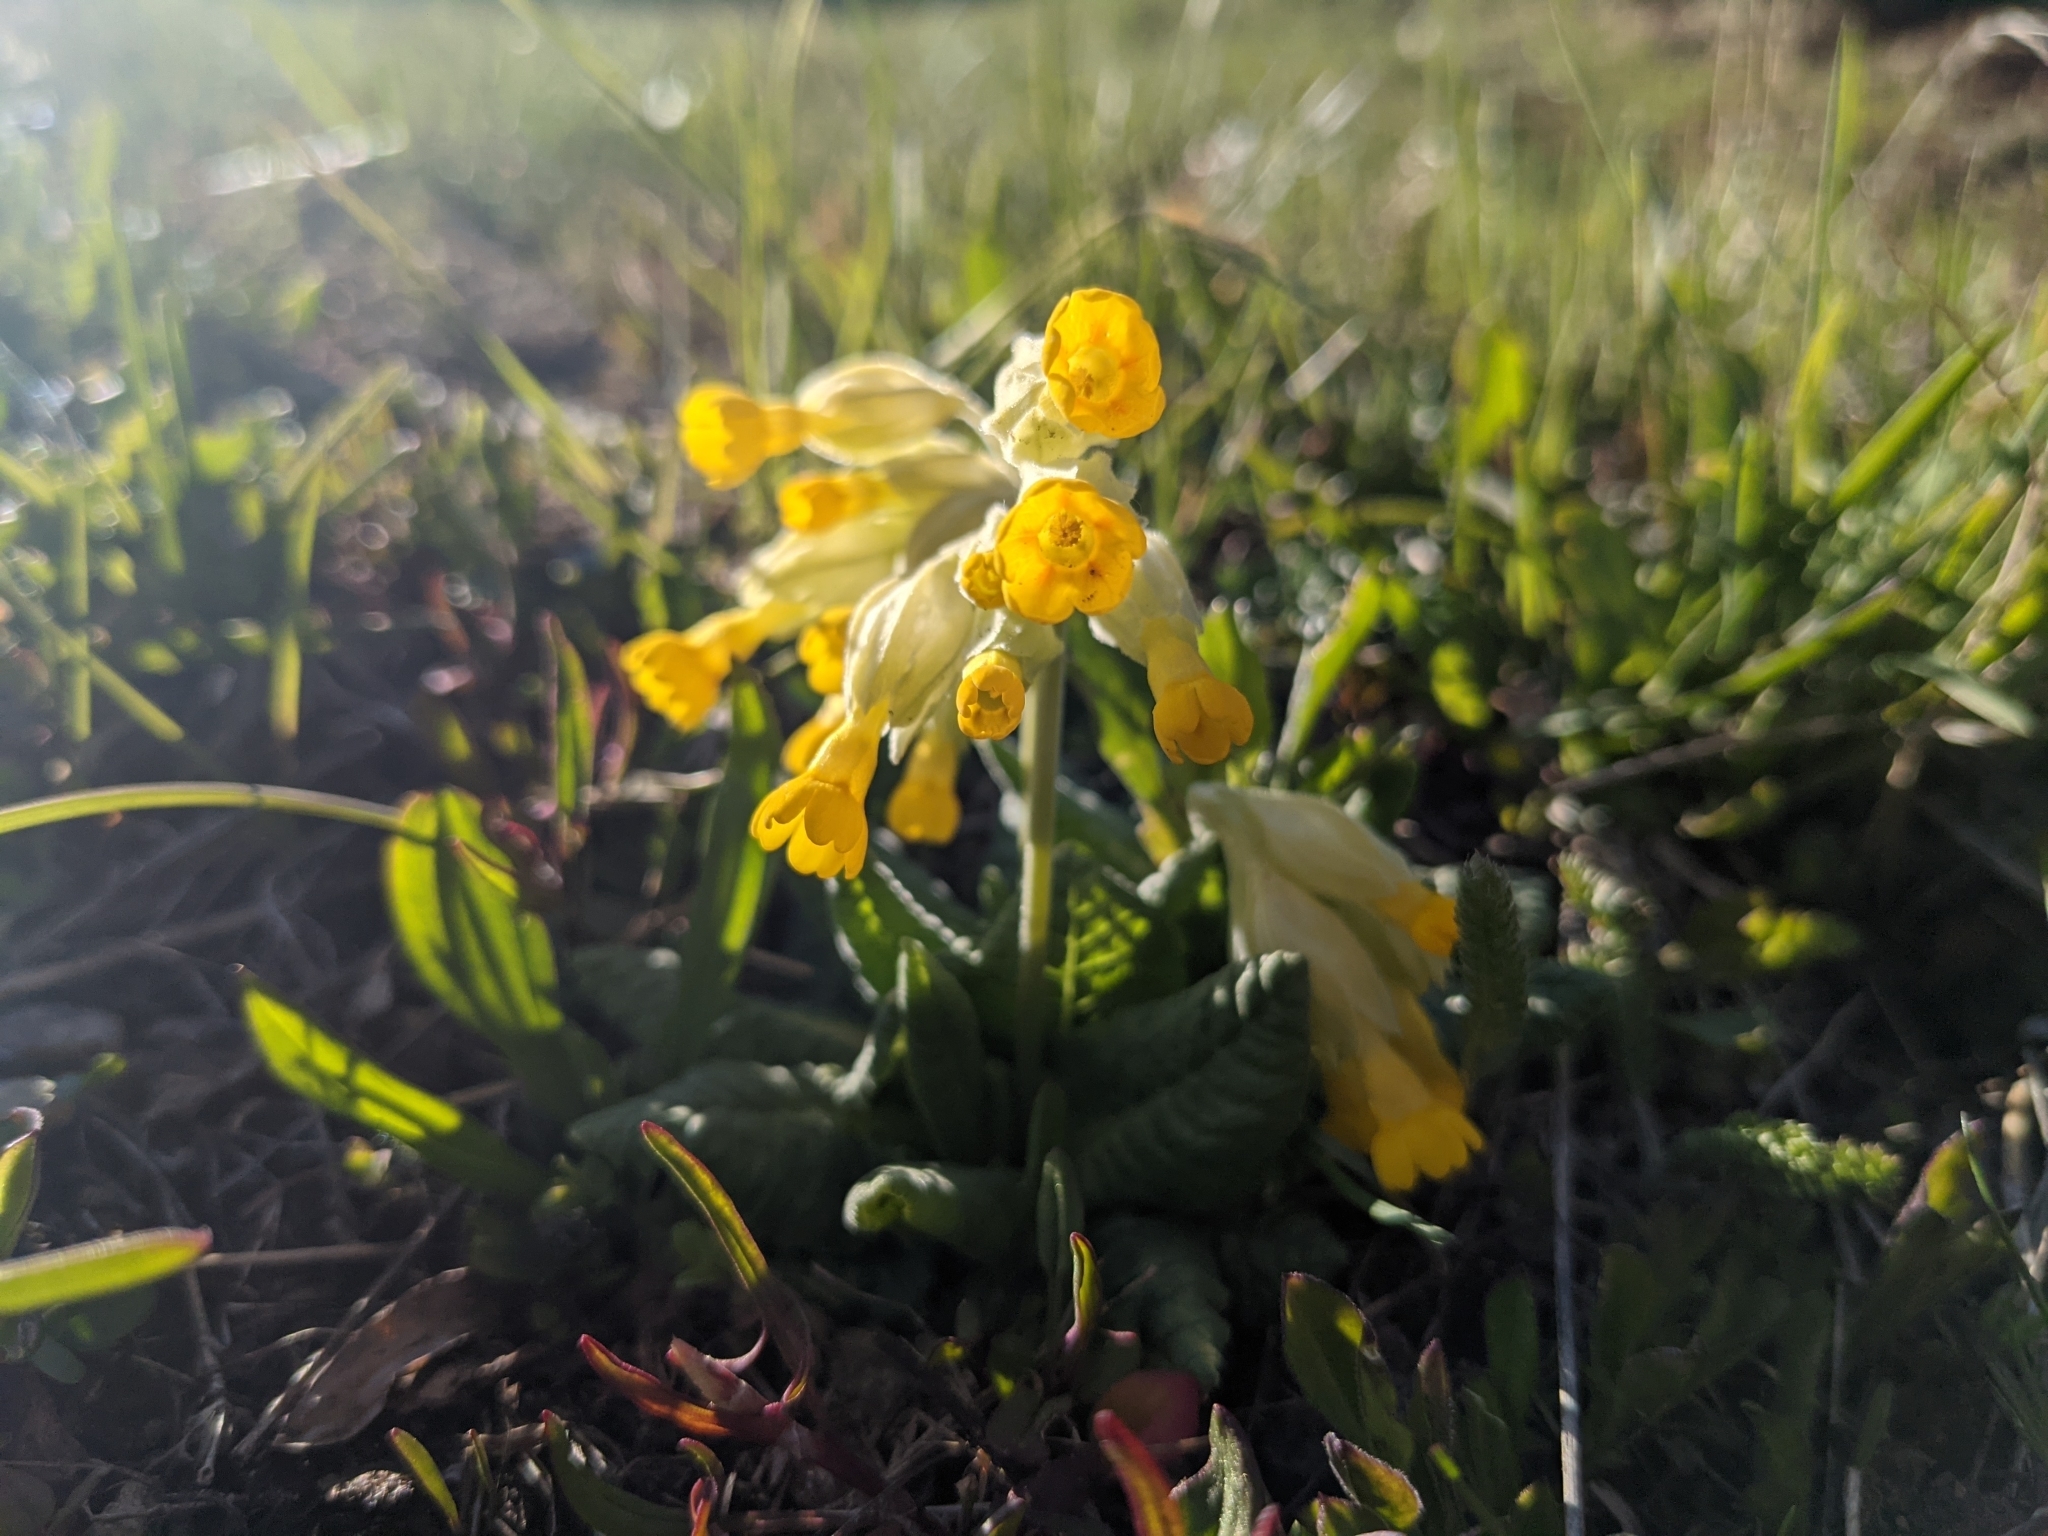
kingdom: Plantae
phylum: Tracheophyta
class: Magnoliopsida
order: Ericales
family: Primulaceae
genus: Primula
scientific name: Primula veris
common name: Cowslip
